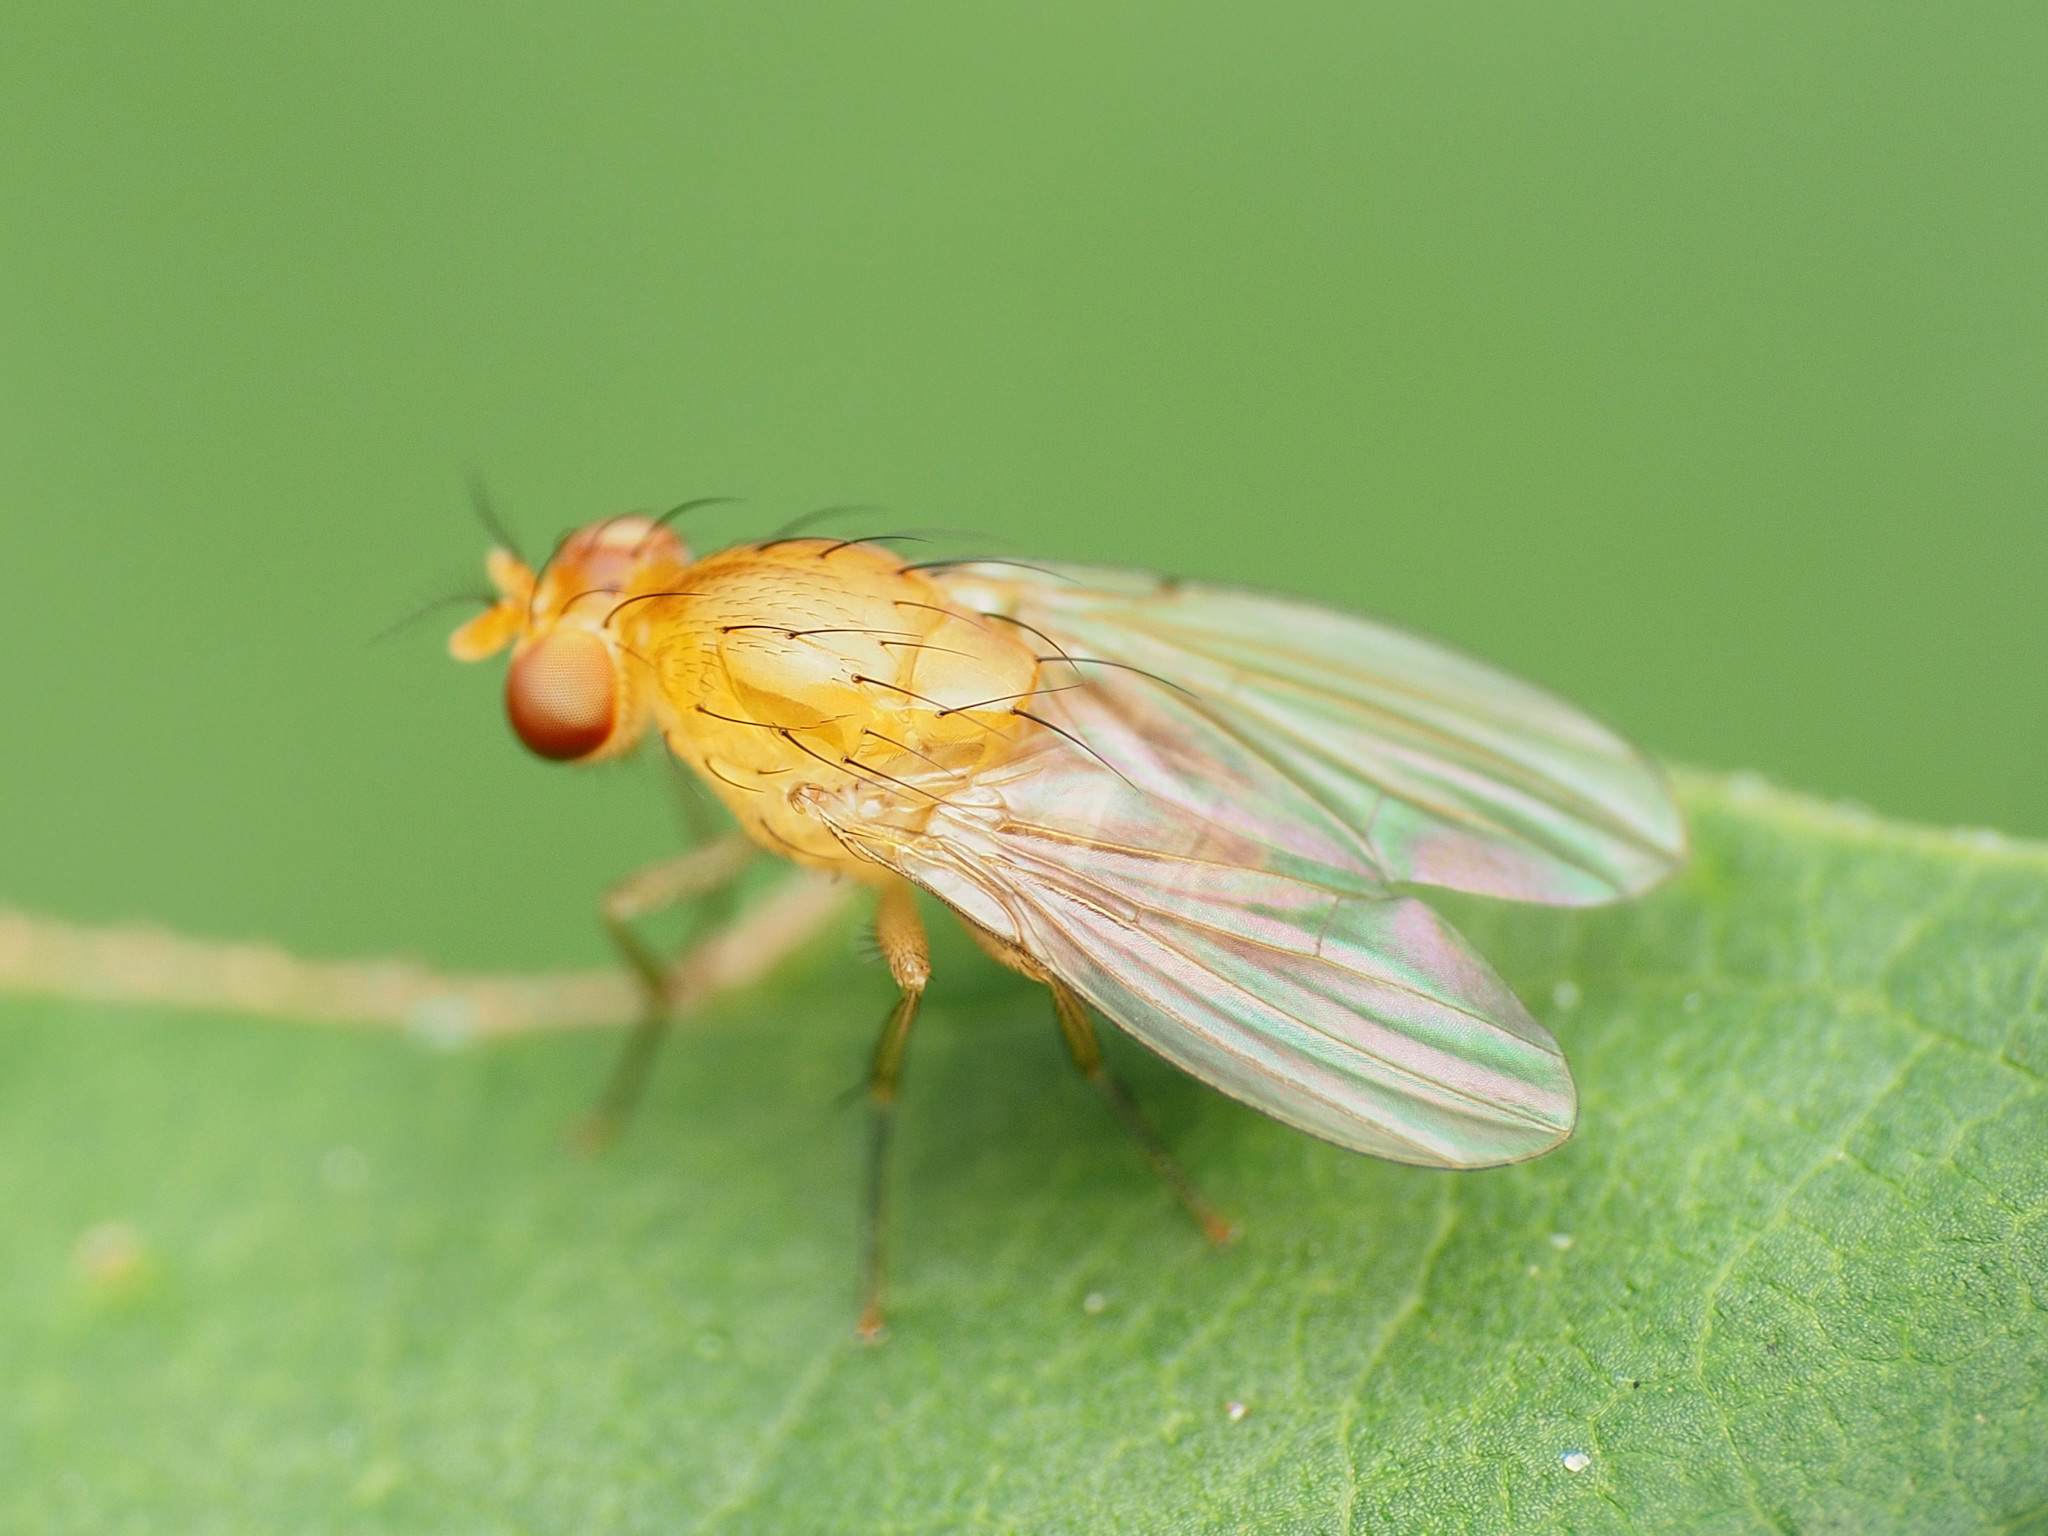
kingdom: Animalia
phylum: Arthropoda
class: Insecta
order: Diptera
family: Lauxaniidae
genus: Neogriphoneura
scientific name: Neogriphoneura sordida
